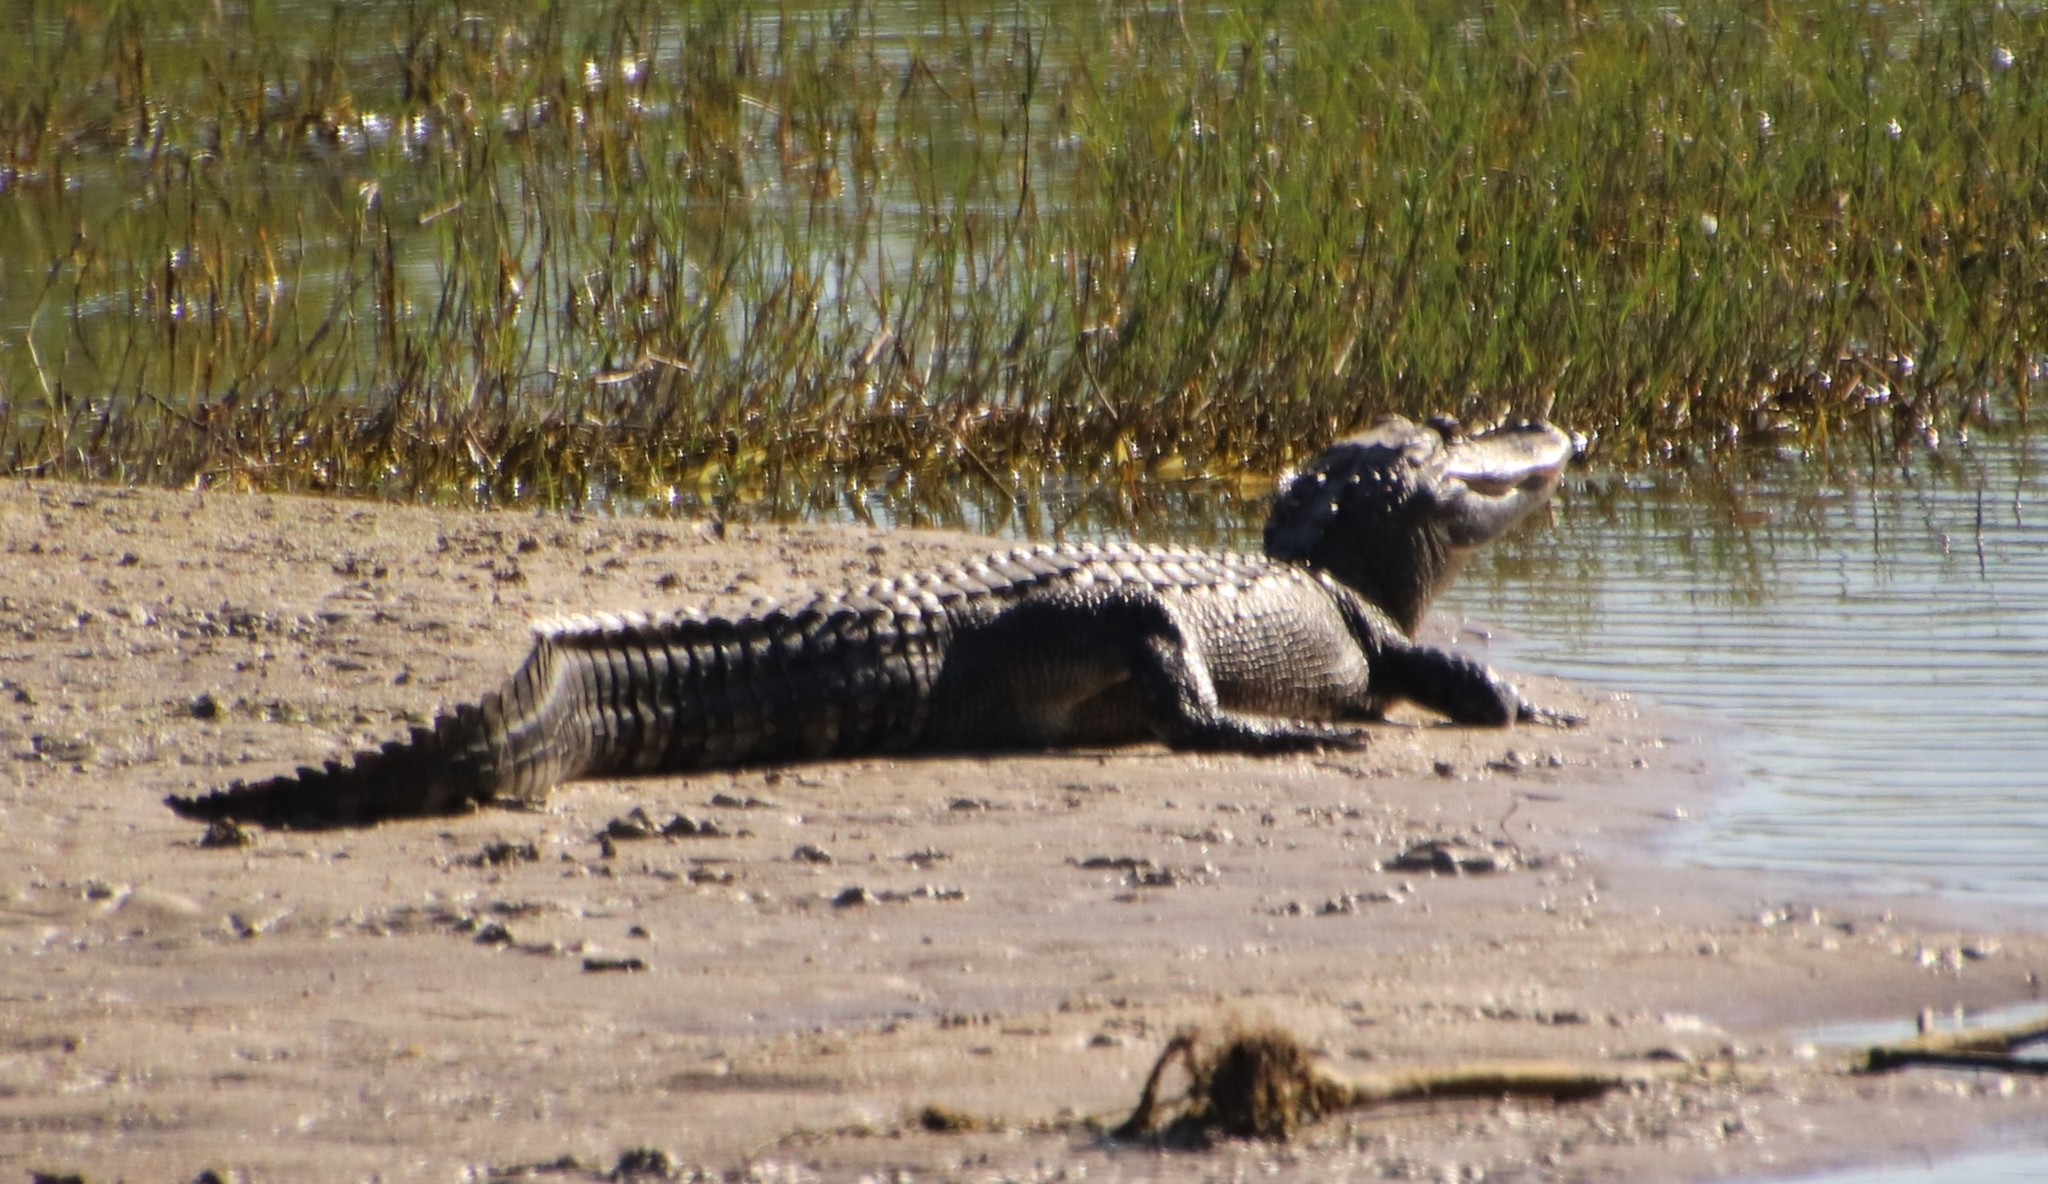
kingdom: Animalia
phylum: Chordata
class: Crocodylia
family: Alligatoridae
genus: Alligator
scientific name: Alligator mississippiensis
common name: American alligator
